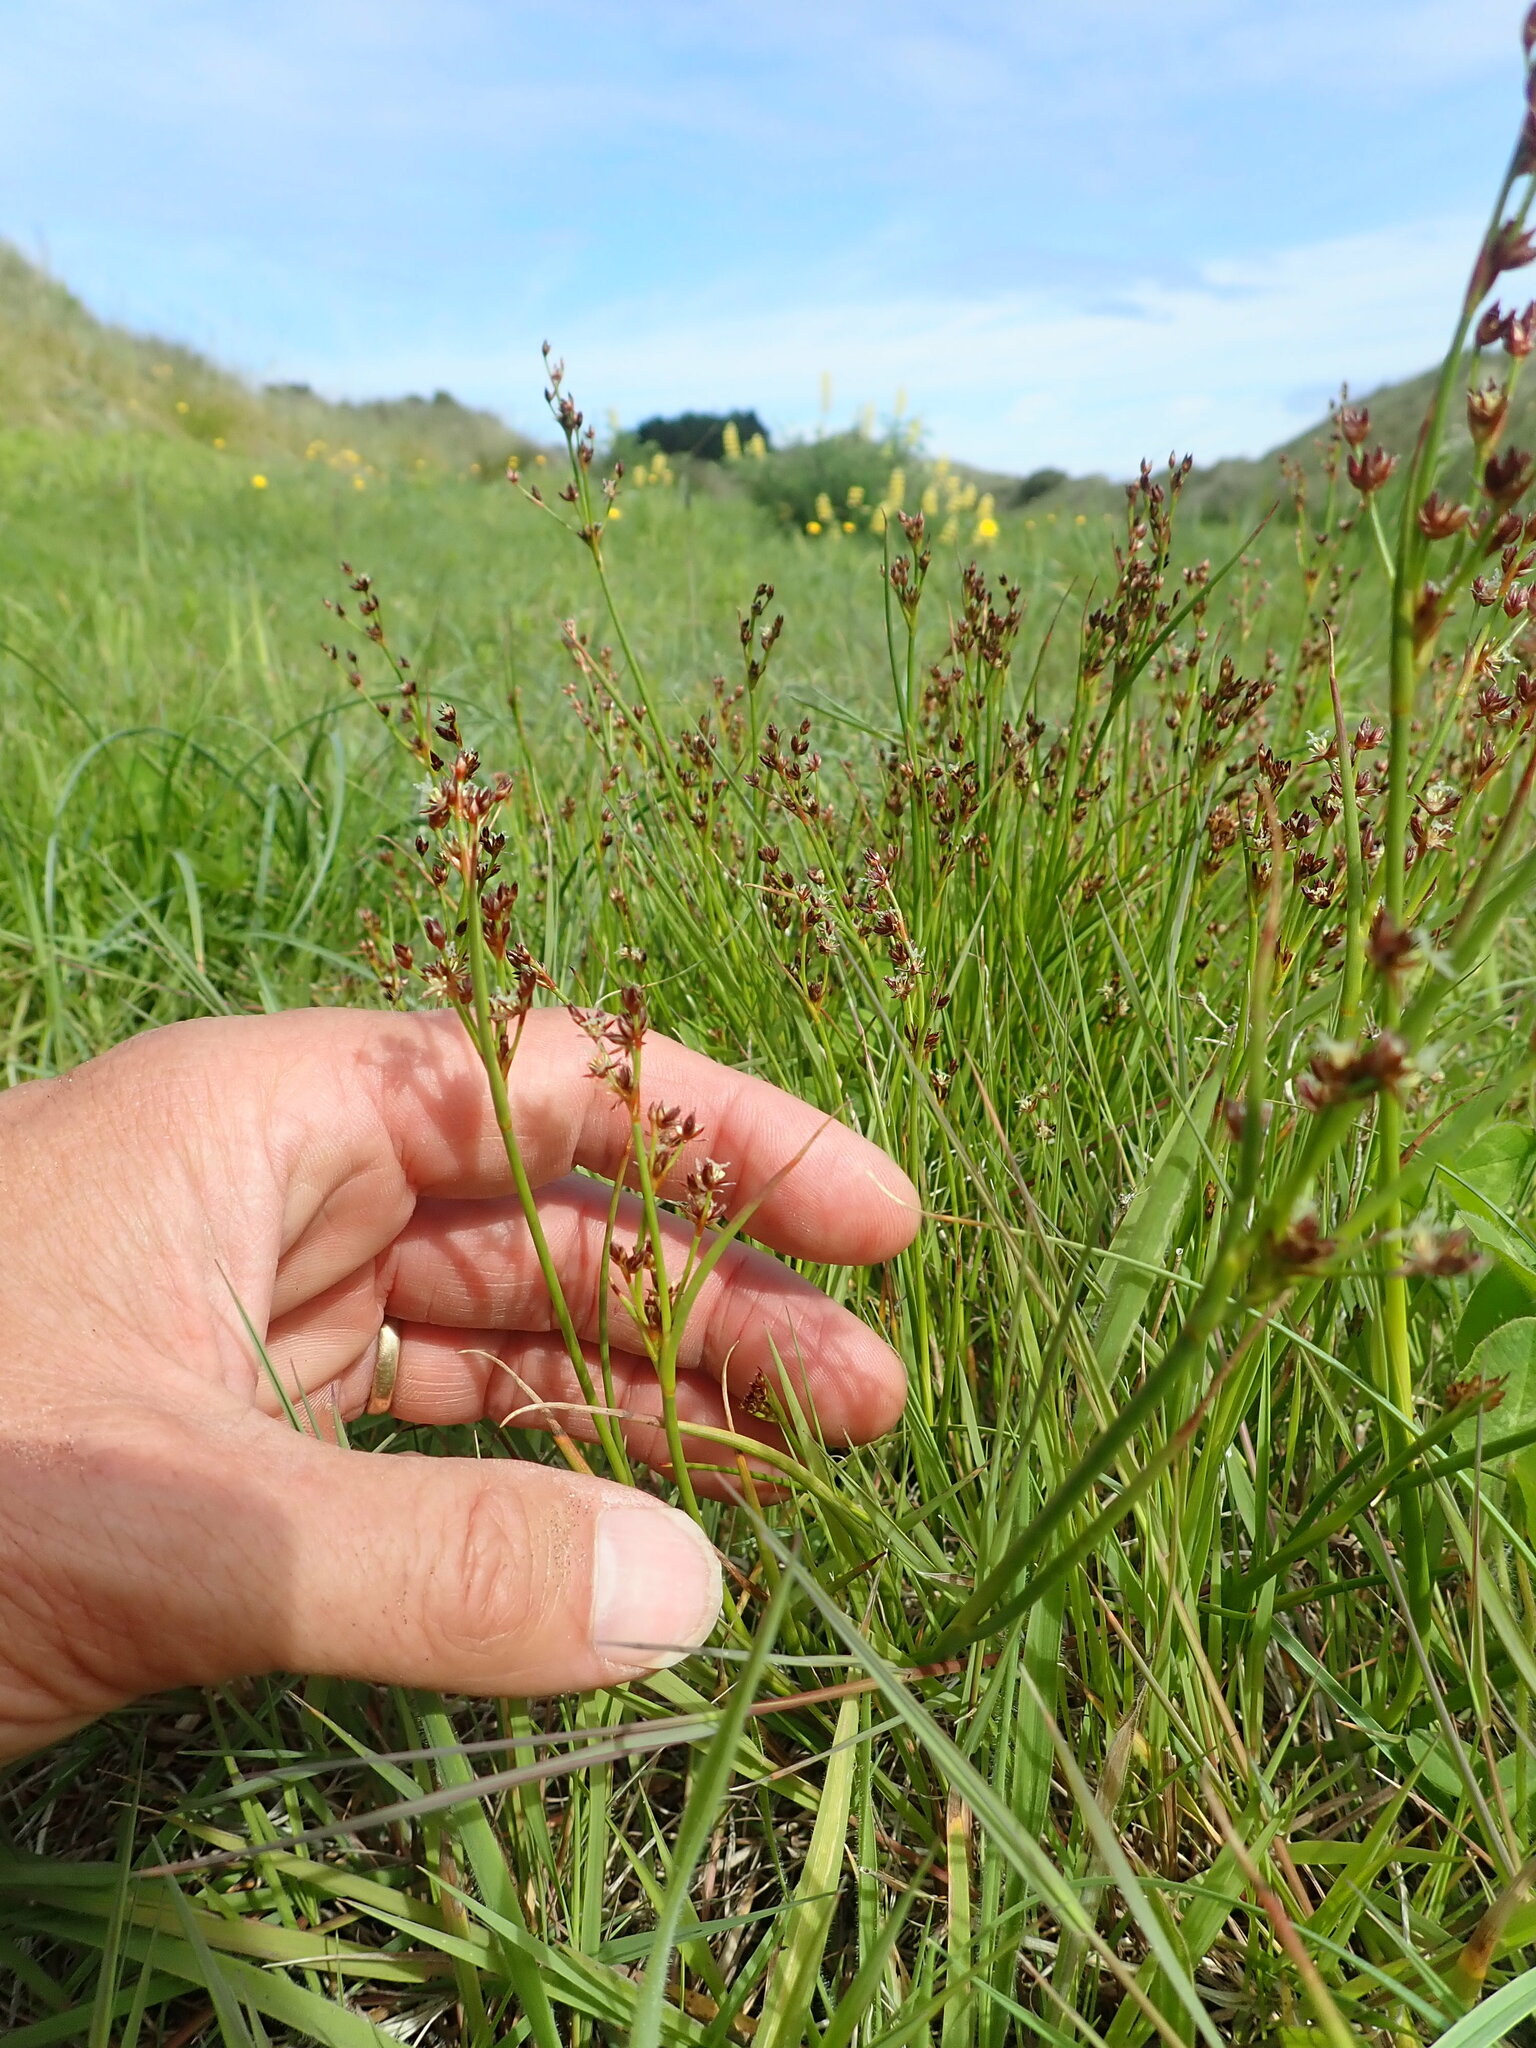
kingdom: Plantae
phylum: Tracheophyta
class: Liliopsida
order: Poales
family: Juncaceae
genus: Juncus
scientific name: Juncus articulatus
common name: Jointed rush
